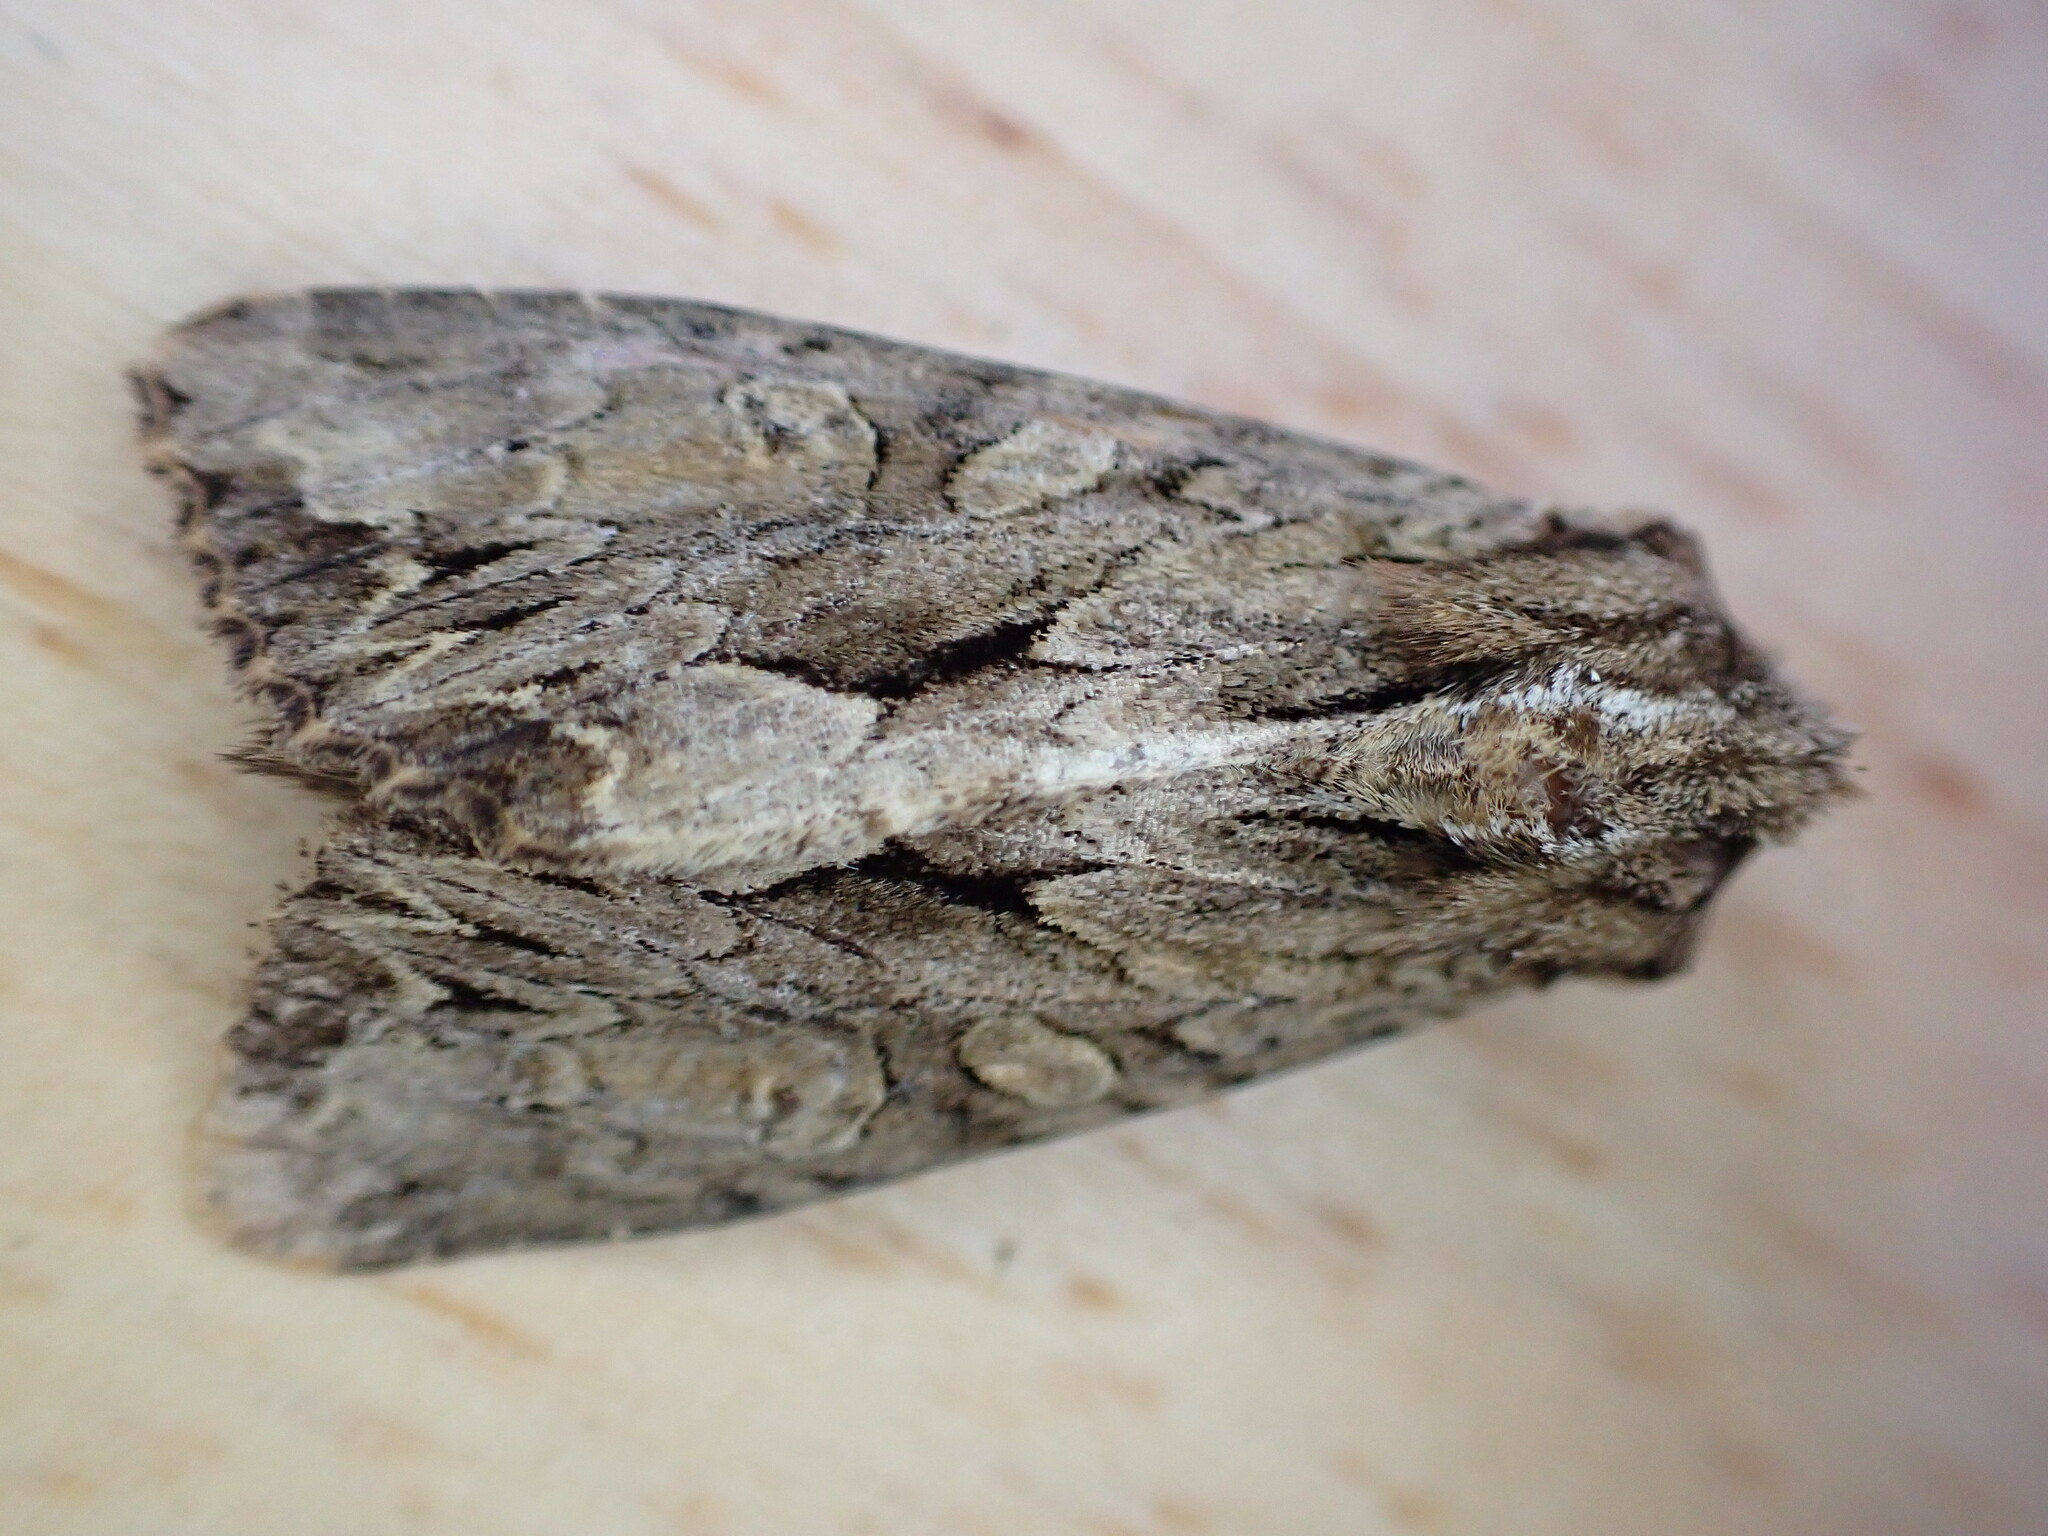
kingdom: Animalia
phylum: Arthropoda
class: Insecta
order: Lepidoptera
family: Noctuidae
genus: Apamea
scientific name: Apamea monoglypha
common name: Dark arches
